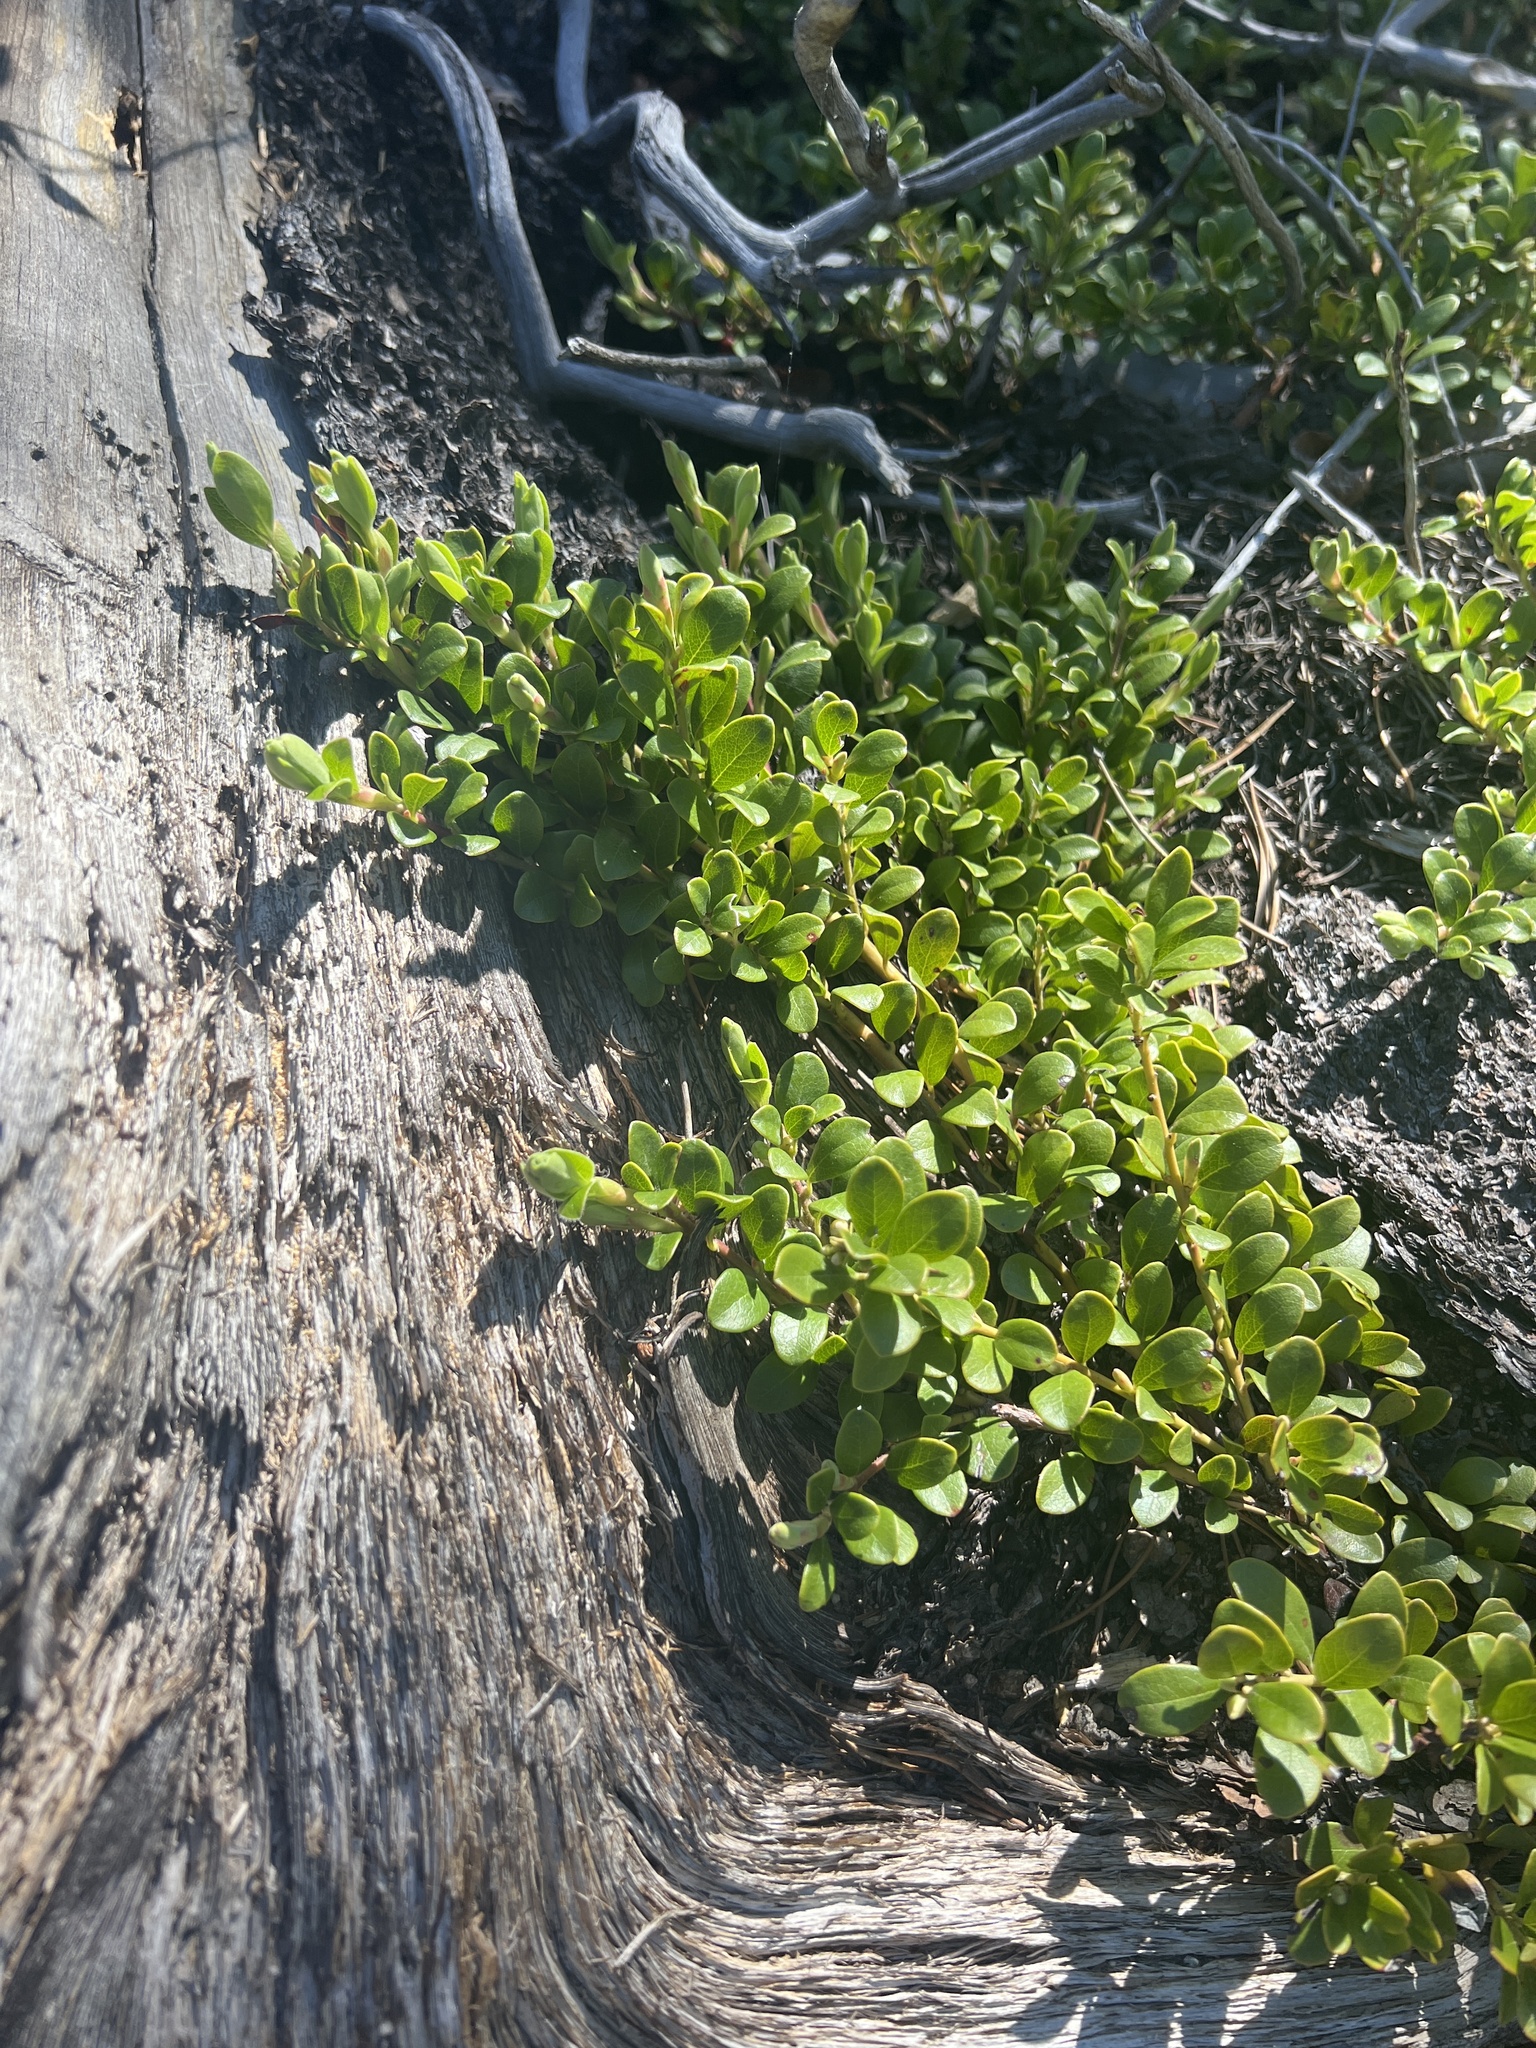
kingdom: Plantae
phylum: Tracheophyta
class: Magnoliopsida
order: Ericales
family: Ericaceae
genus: Arctostaphylos
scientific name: Arctostaphylos uva-ursi
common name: Bearberry
